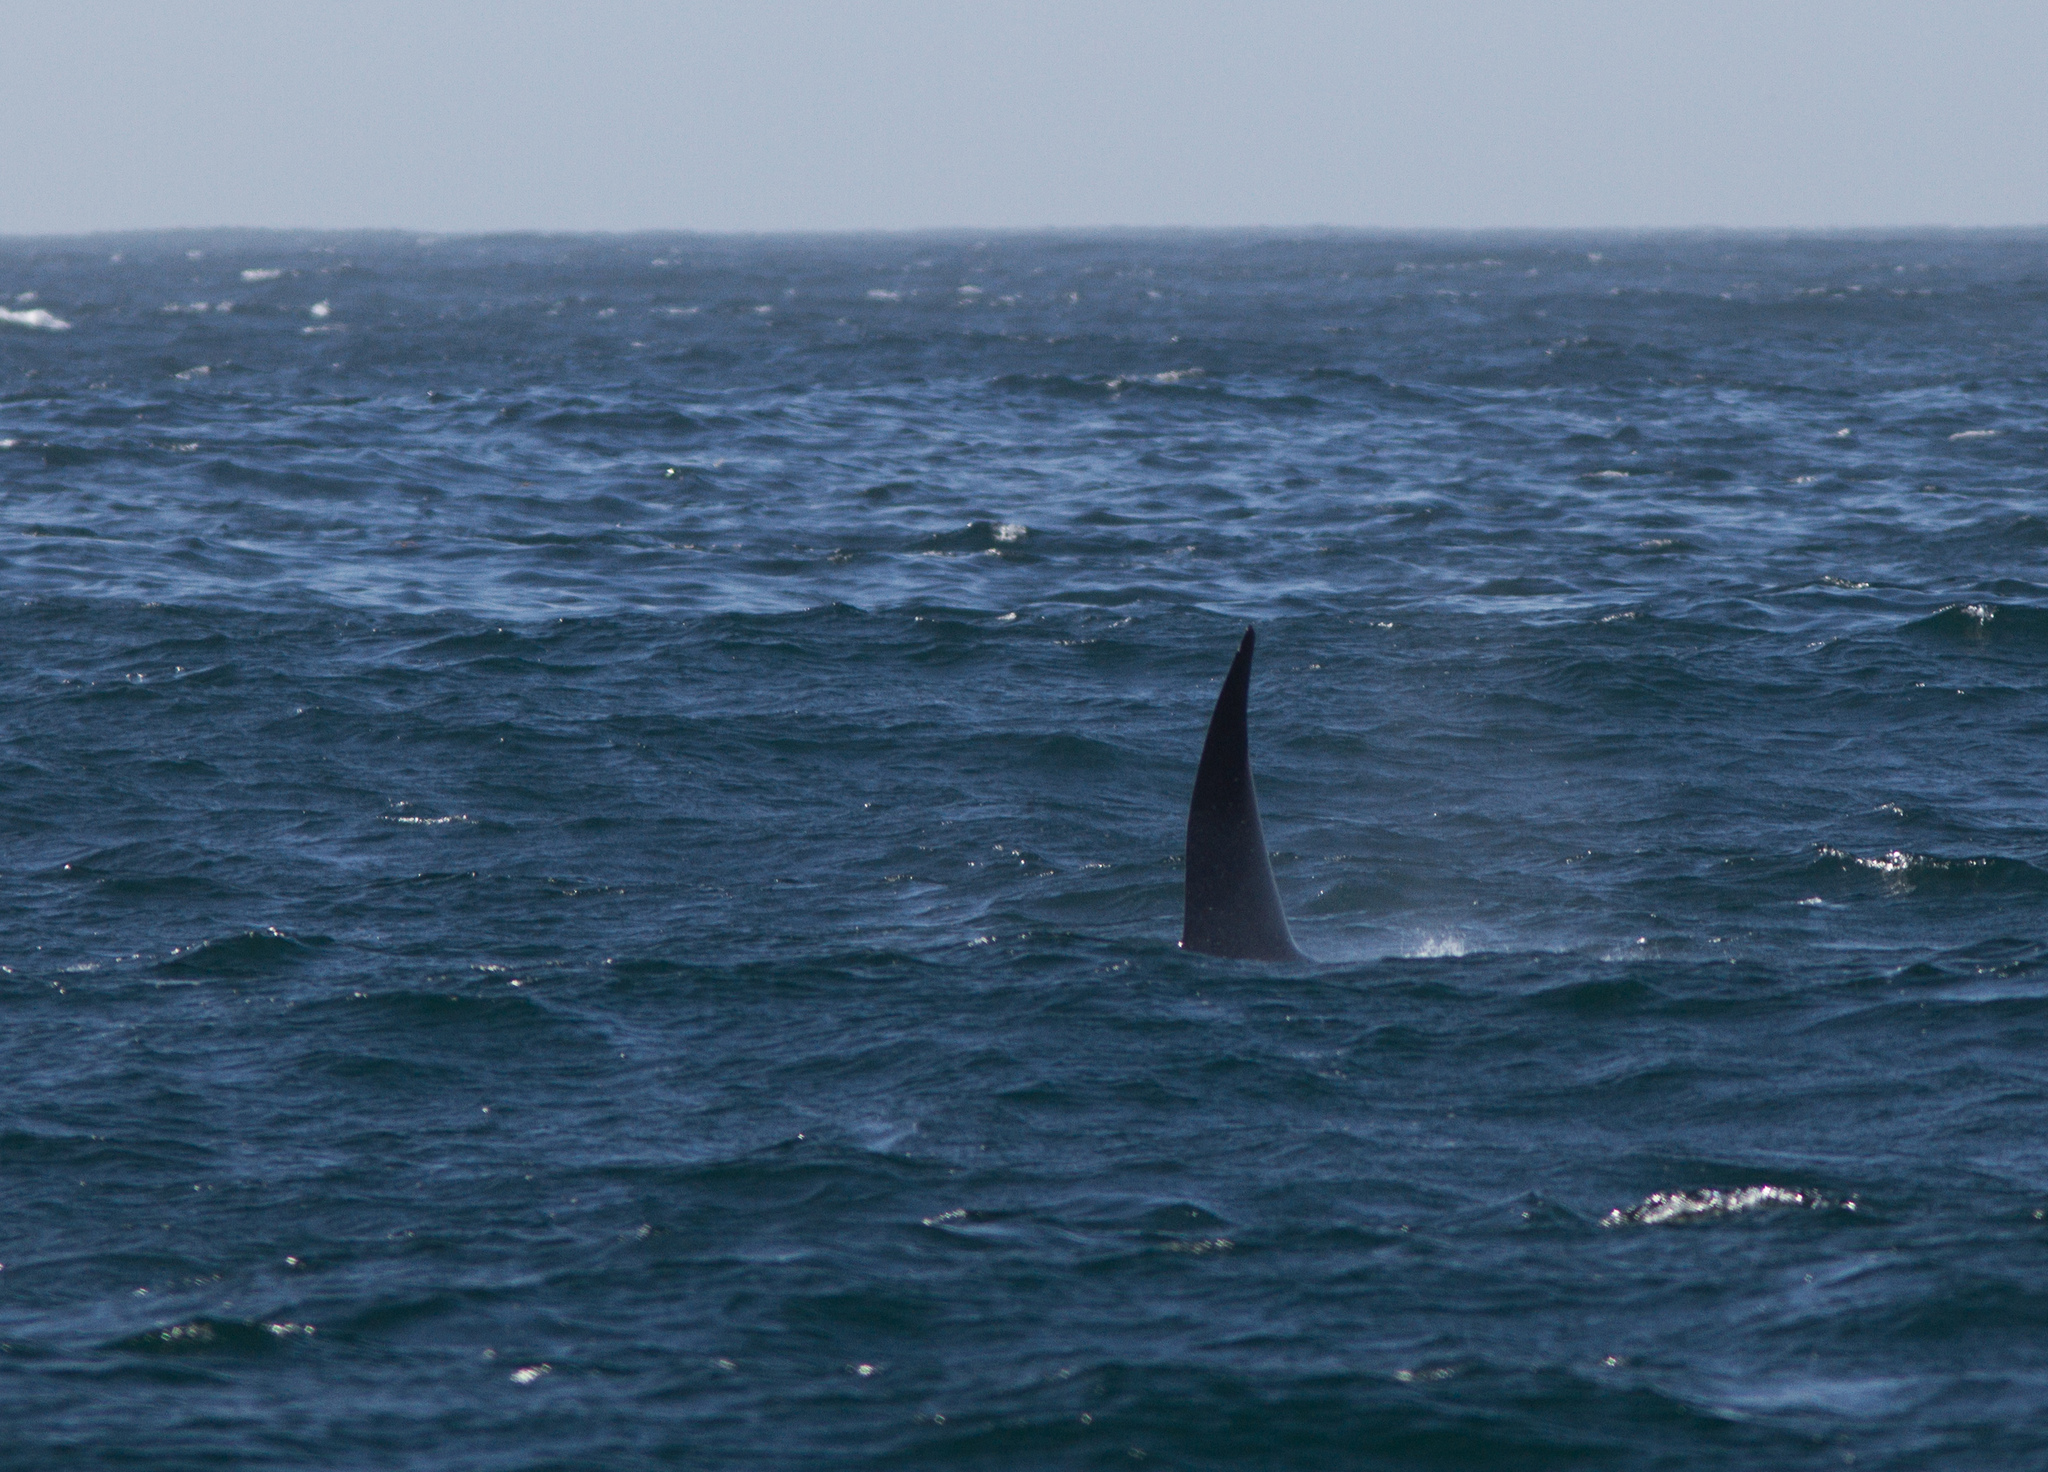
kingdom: Animalia
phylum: Chordata
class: Mammalia
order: Cetacea
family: Delphinidae
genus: Orcinus
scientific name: Orcinus orca
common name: Killer whale
